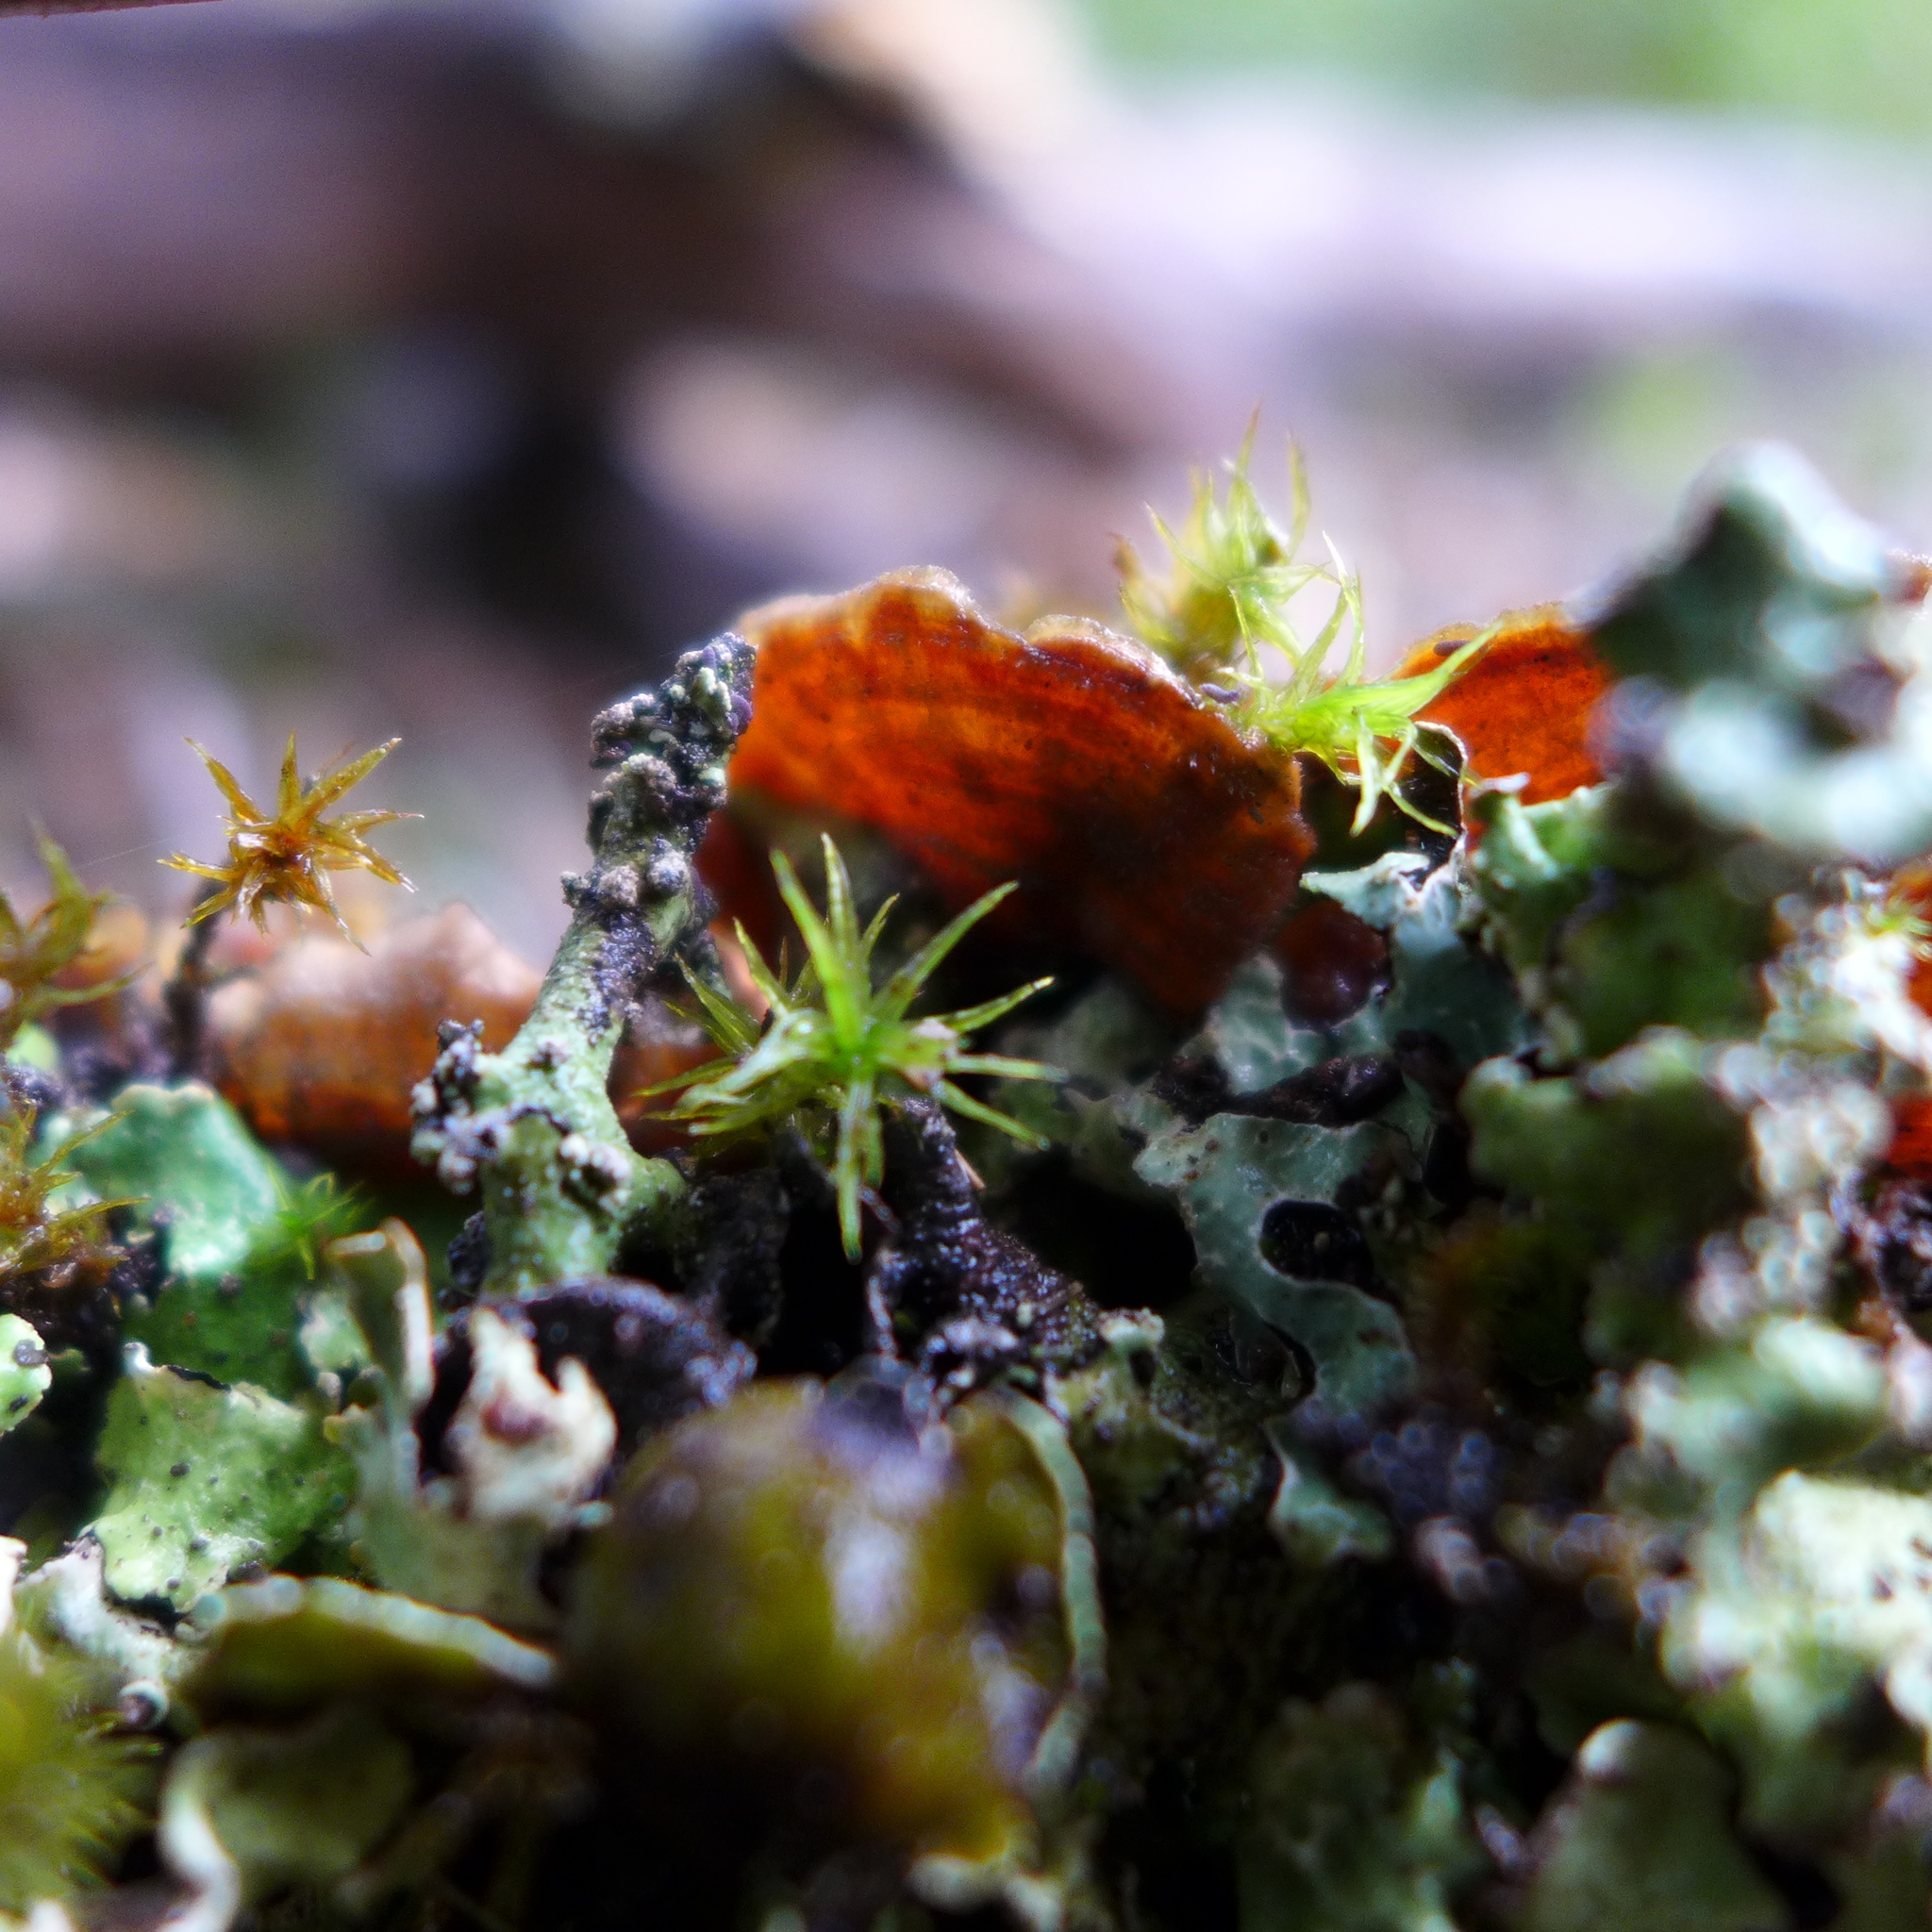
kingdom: Fungi
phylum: Basidiomycota
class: Agaricomycetes
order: Russulales
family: Stereaceae
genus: Stereum
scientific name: Stereum hirsutum
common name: Hairy curtain crust
